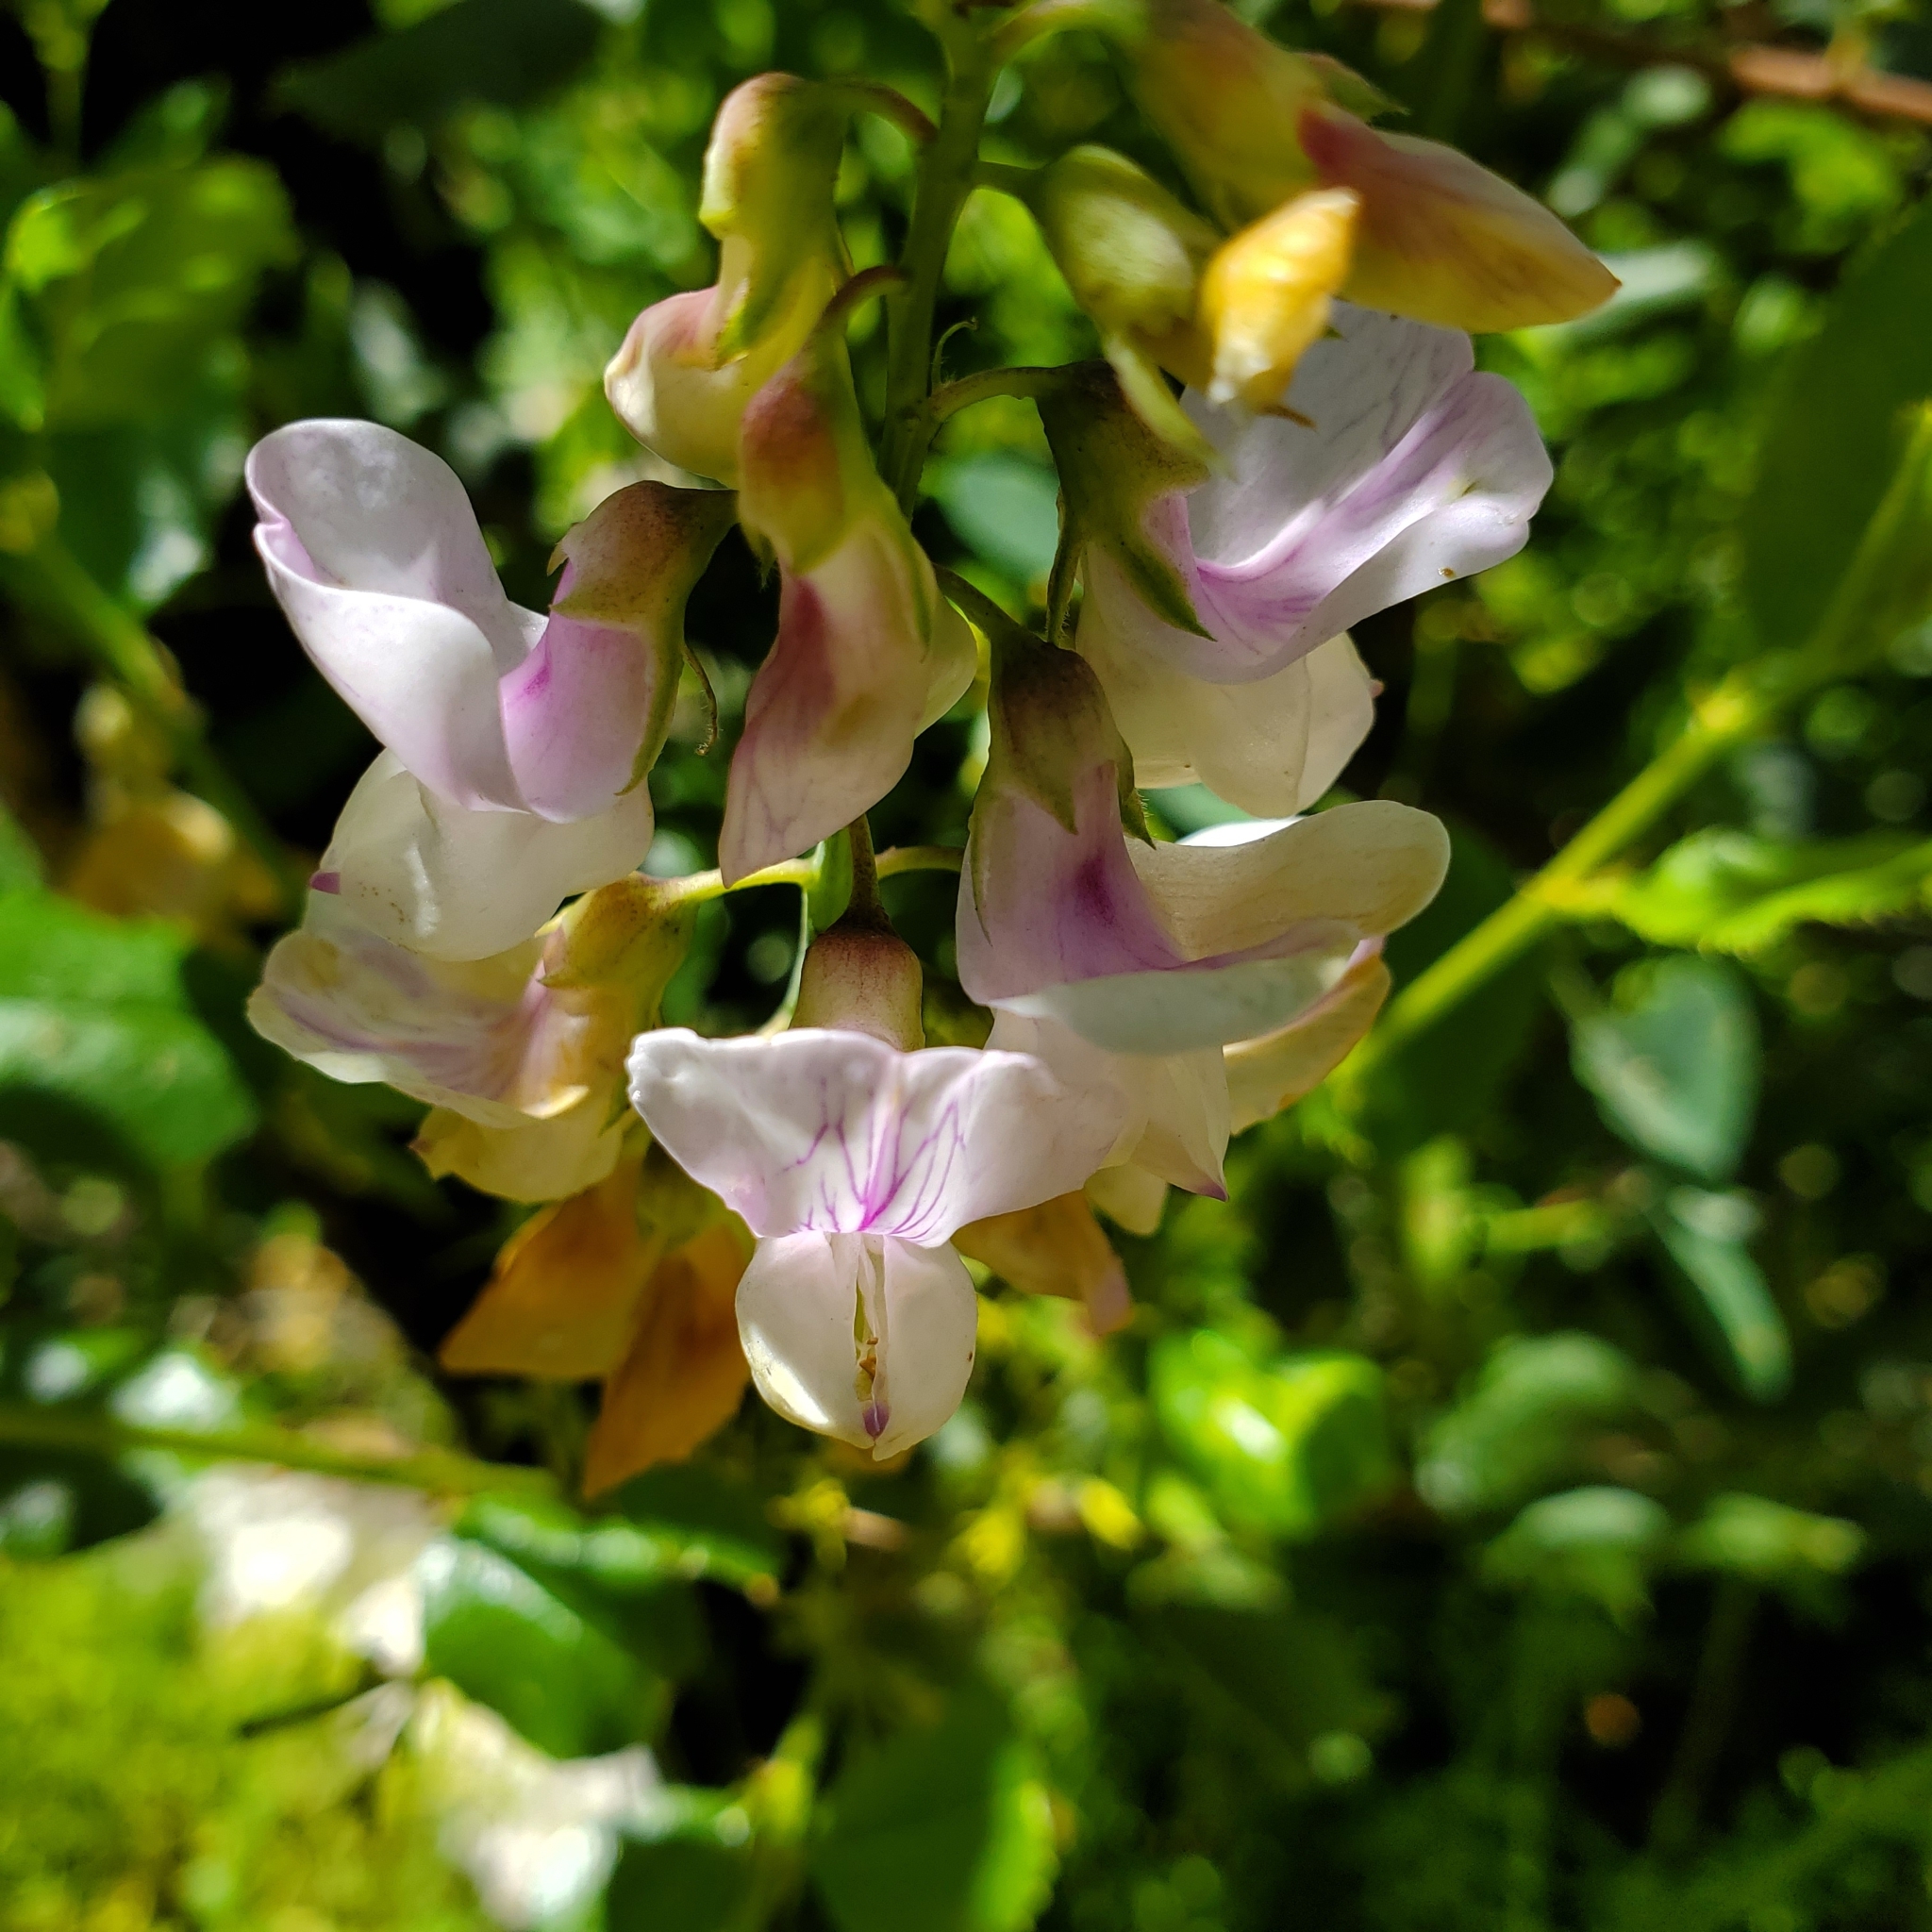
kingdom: Plantae
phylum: Tracheophyta
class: Magnoliopsida
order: Fabales
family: Fabaceae
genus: Lathyrus
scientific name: Lathyrus vestitus
